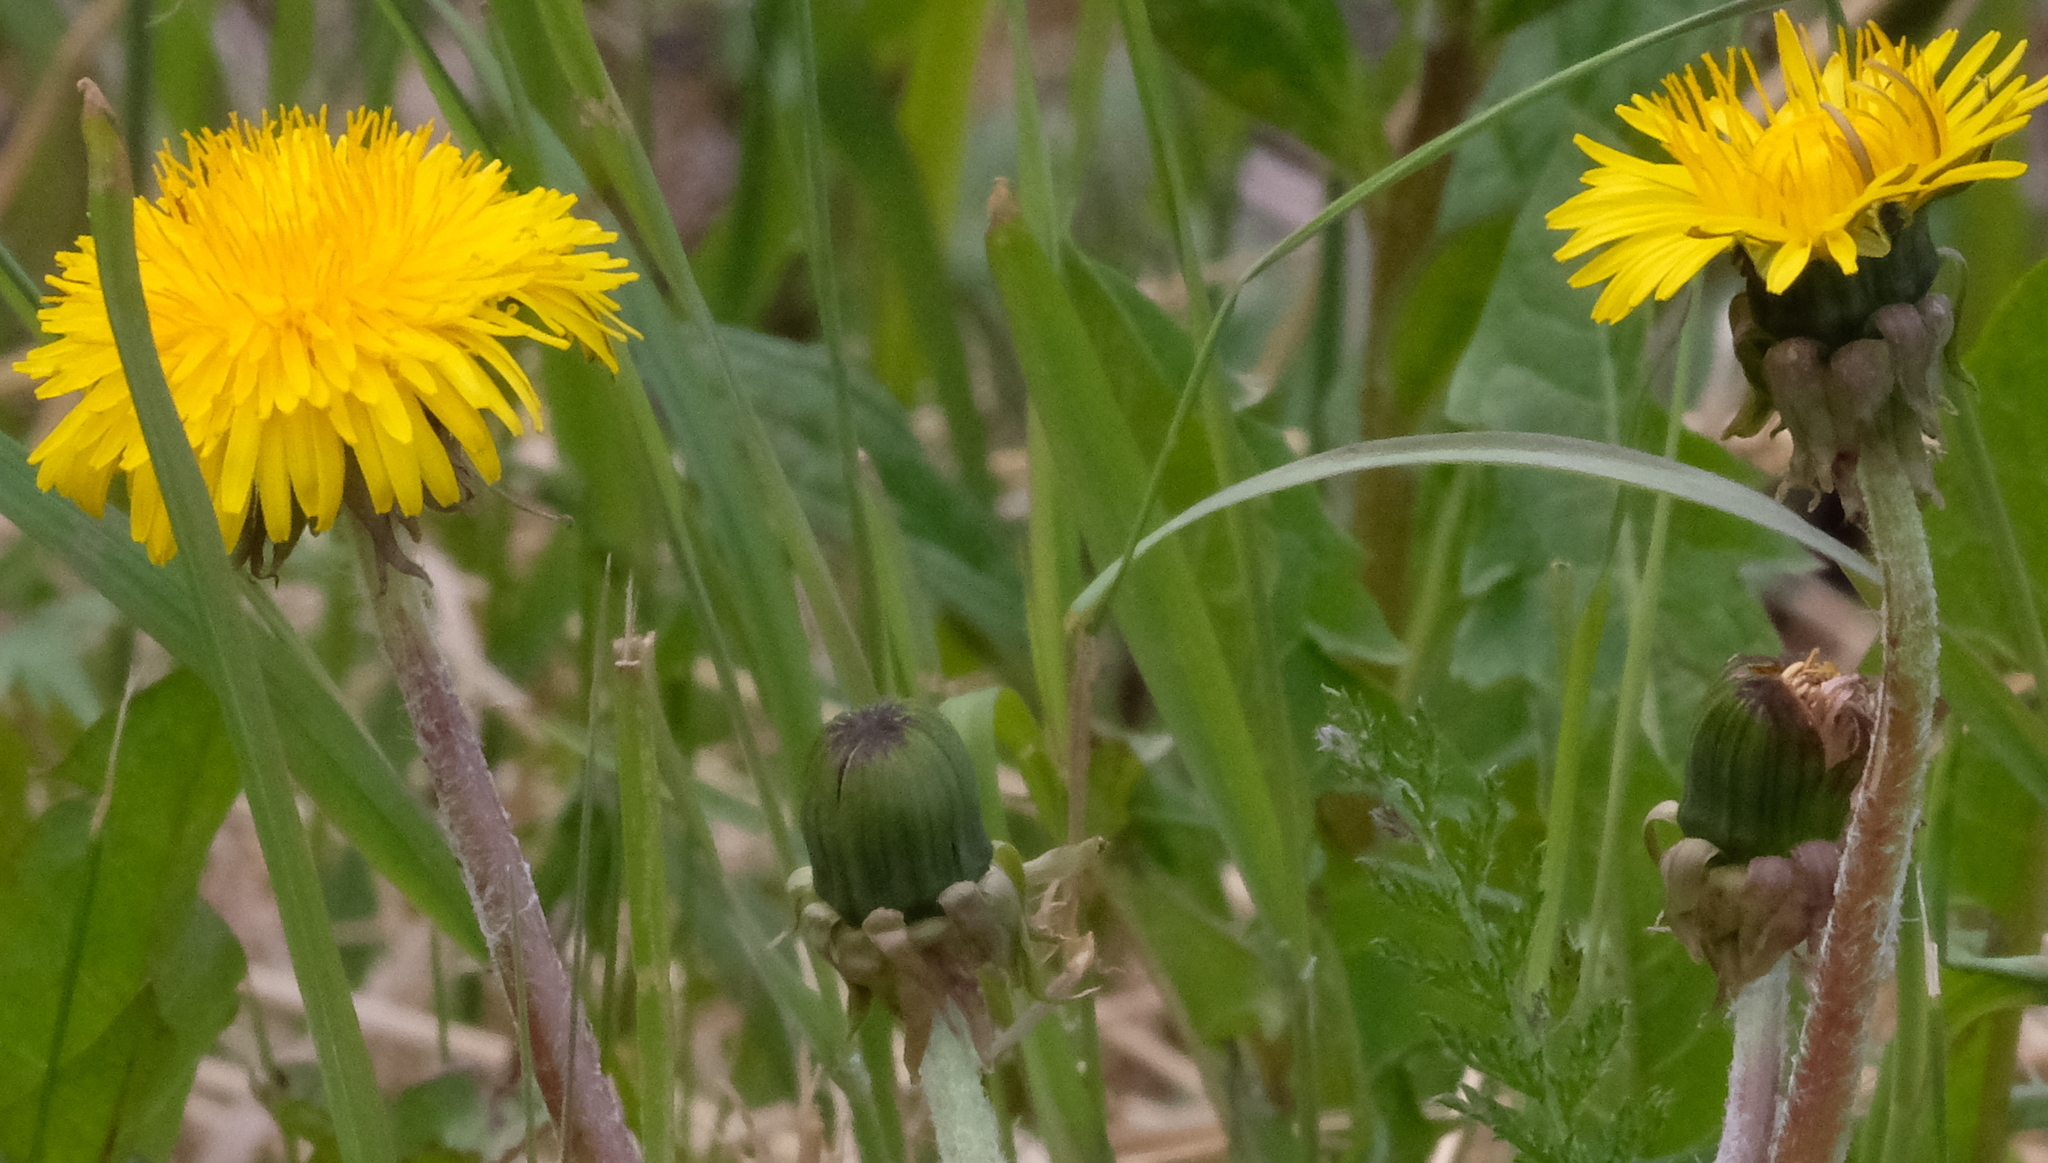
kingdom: Plantae
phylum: Tracheophyta
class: Magnoliopsida
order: Asterales
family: Asteraceae
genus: Taraxacum
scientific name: Taraxacum officinale
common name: Common dandelion
